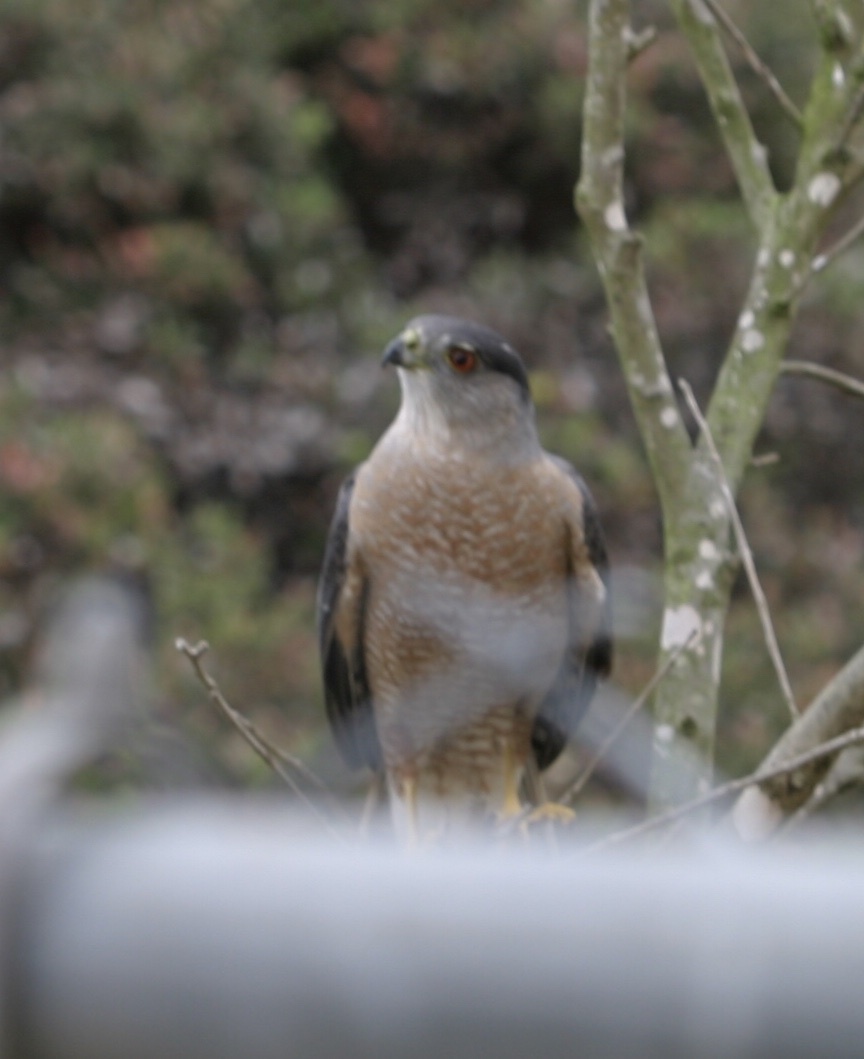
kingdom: Animalia
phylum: Chordata
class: Aves
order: Accipitriformes
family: Accipitridae
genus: Accipiter
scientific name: Accipiter cooperii
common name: Cooper's hawk
